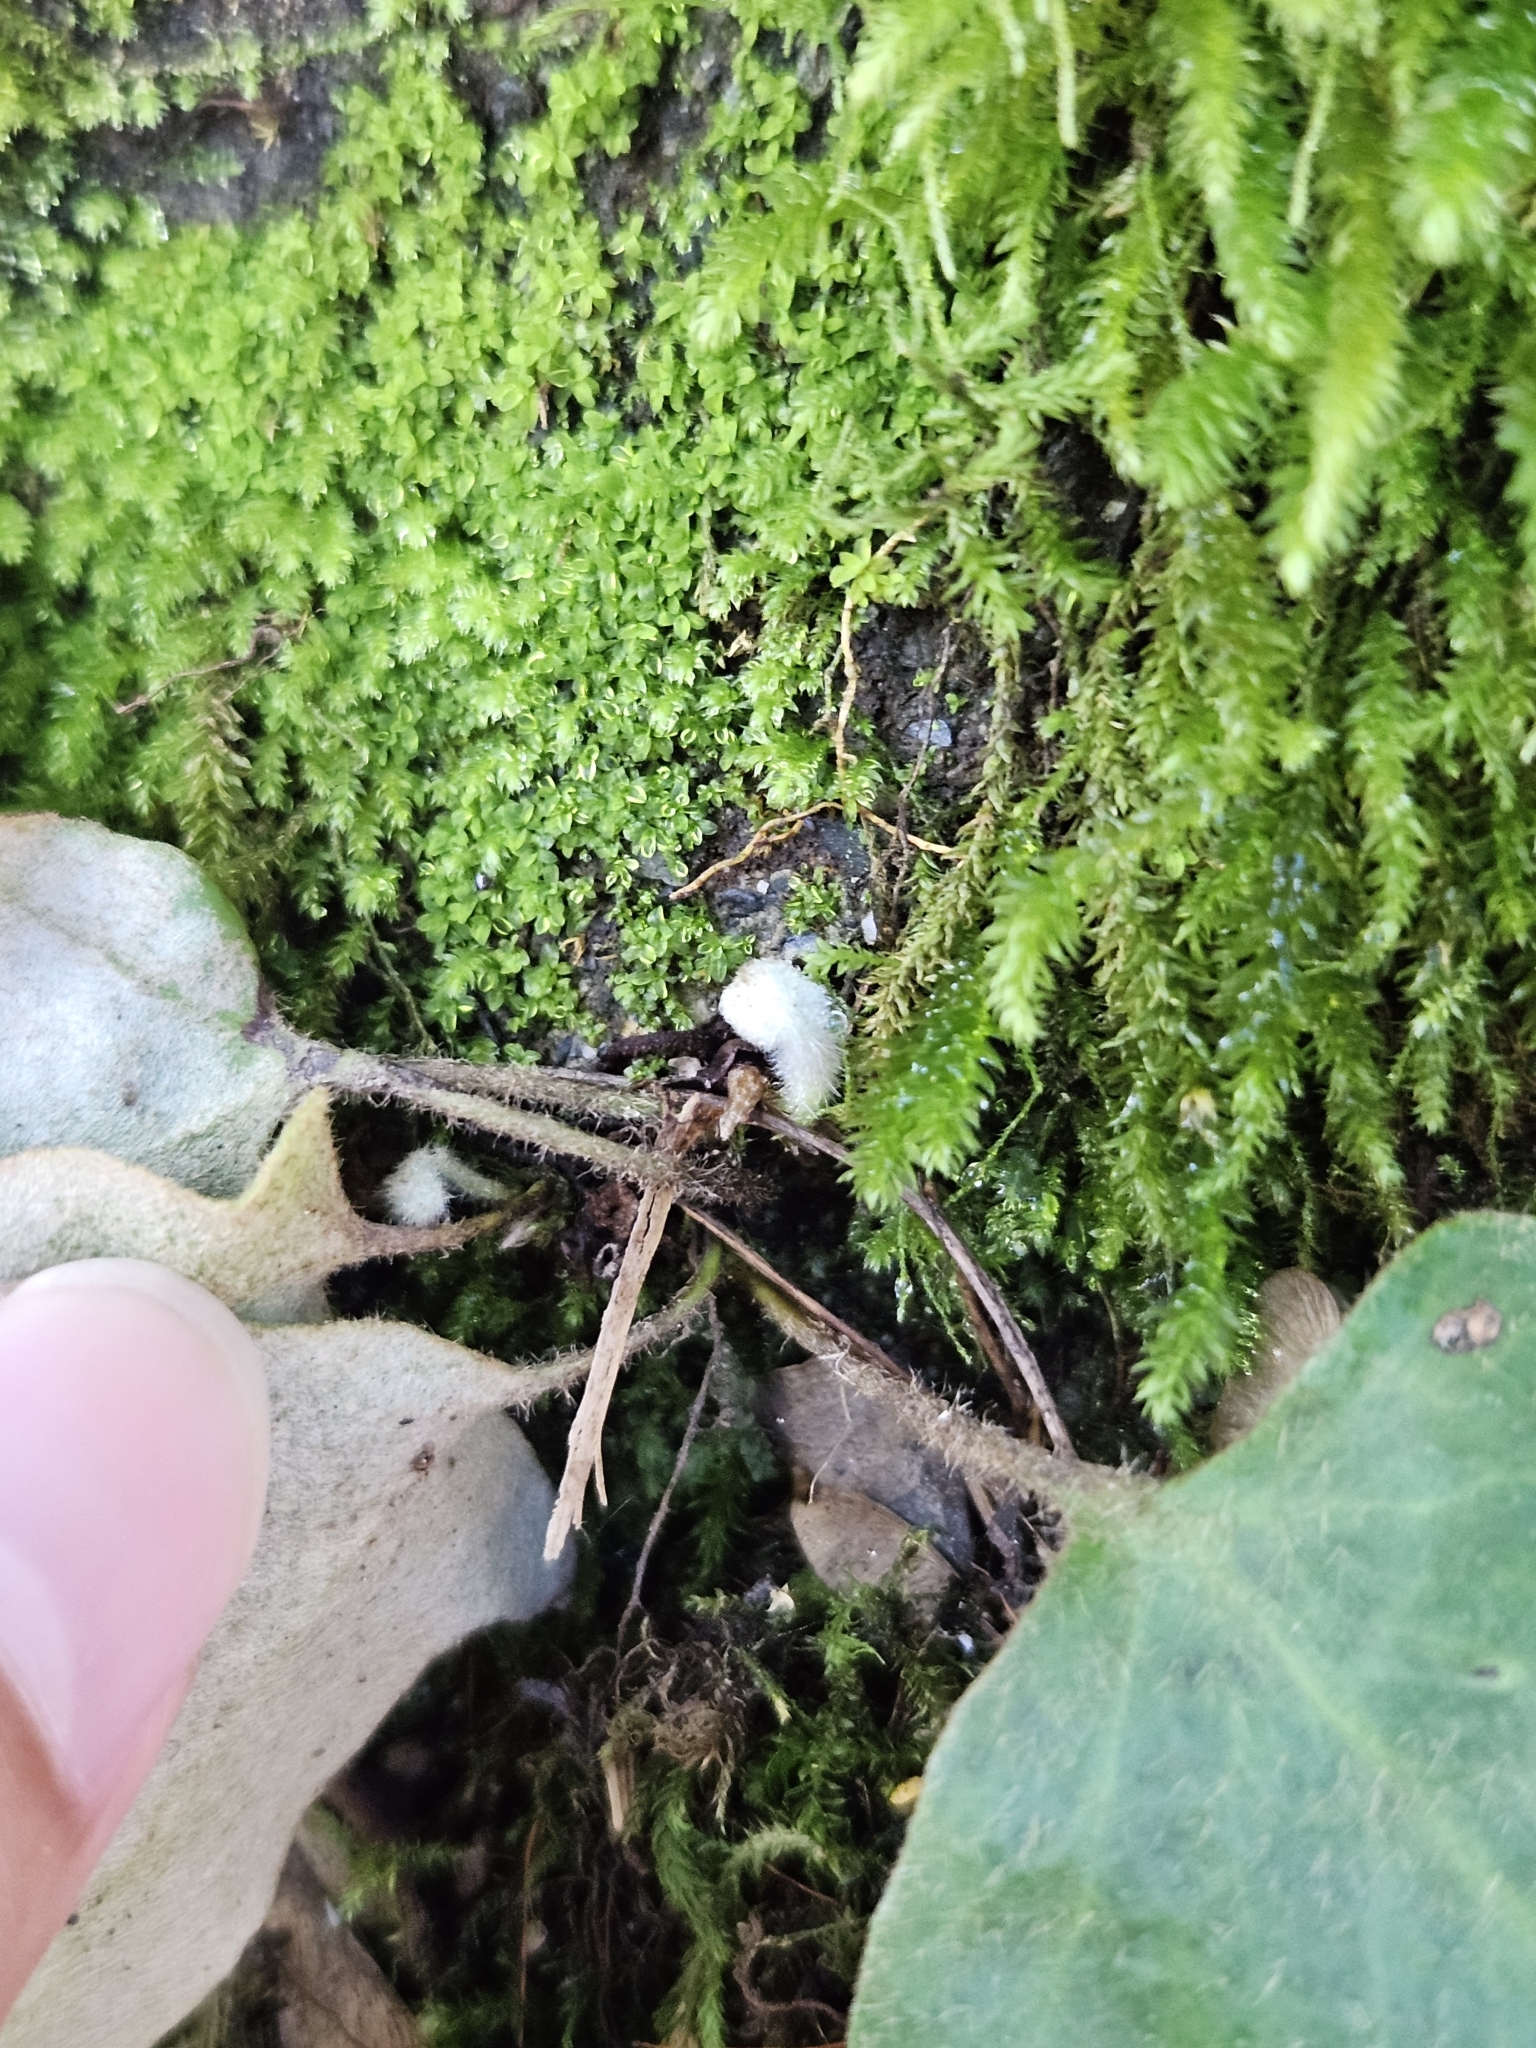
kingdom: Plantae
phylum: Tracheophyta
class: Polypodiopsida
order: Polypodiales
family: Polypodiaceae
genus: Pyrrosia
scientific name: Pyrrosia polydactyla
